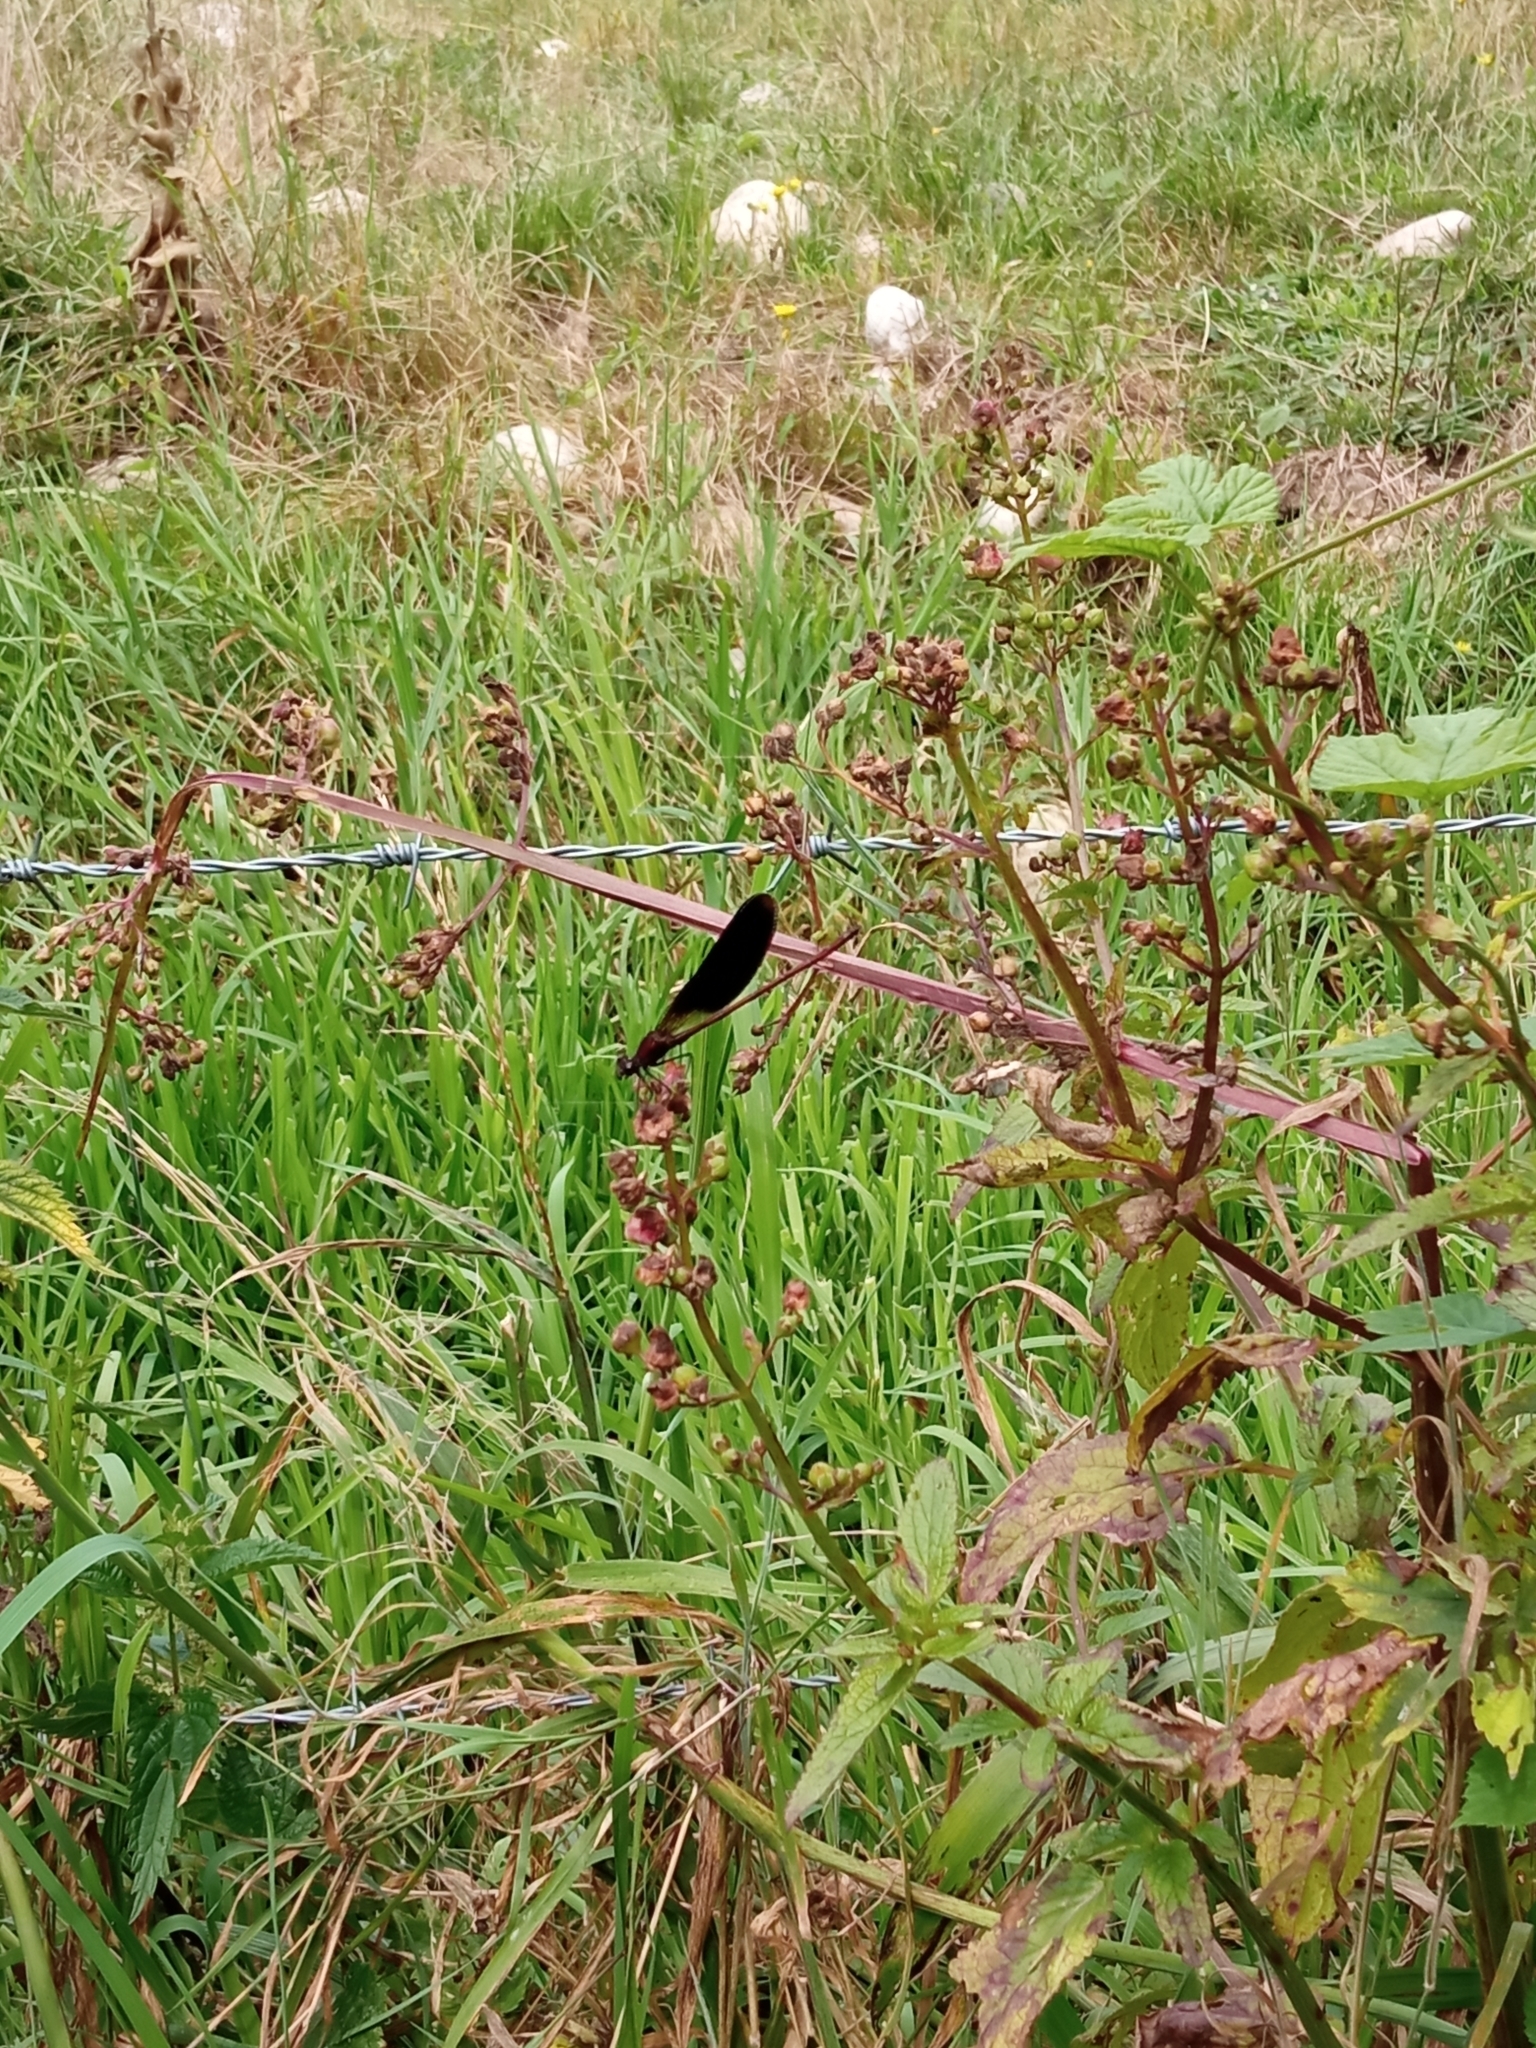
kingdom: Animalia
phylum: Arthropoda
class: Insecta
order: Odonata
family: Calopterygidae
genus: Calopteryx
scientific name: Calopteryx haemorrhoidalis
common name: Copper demoiselle
